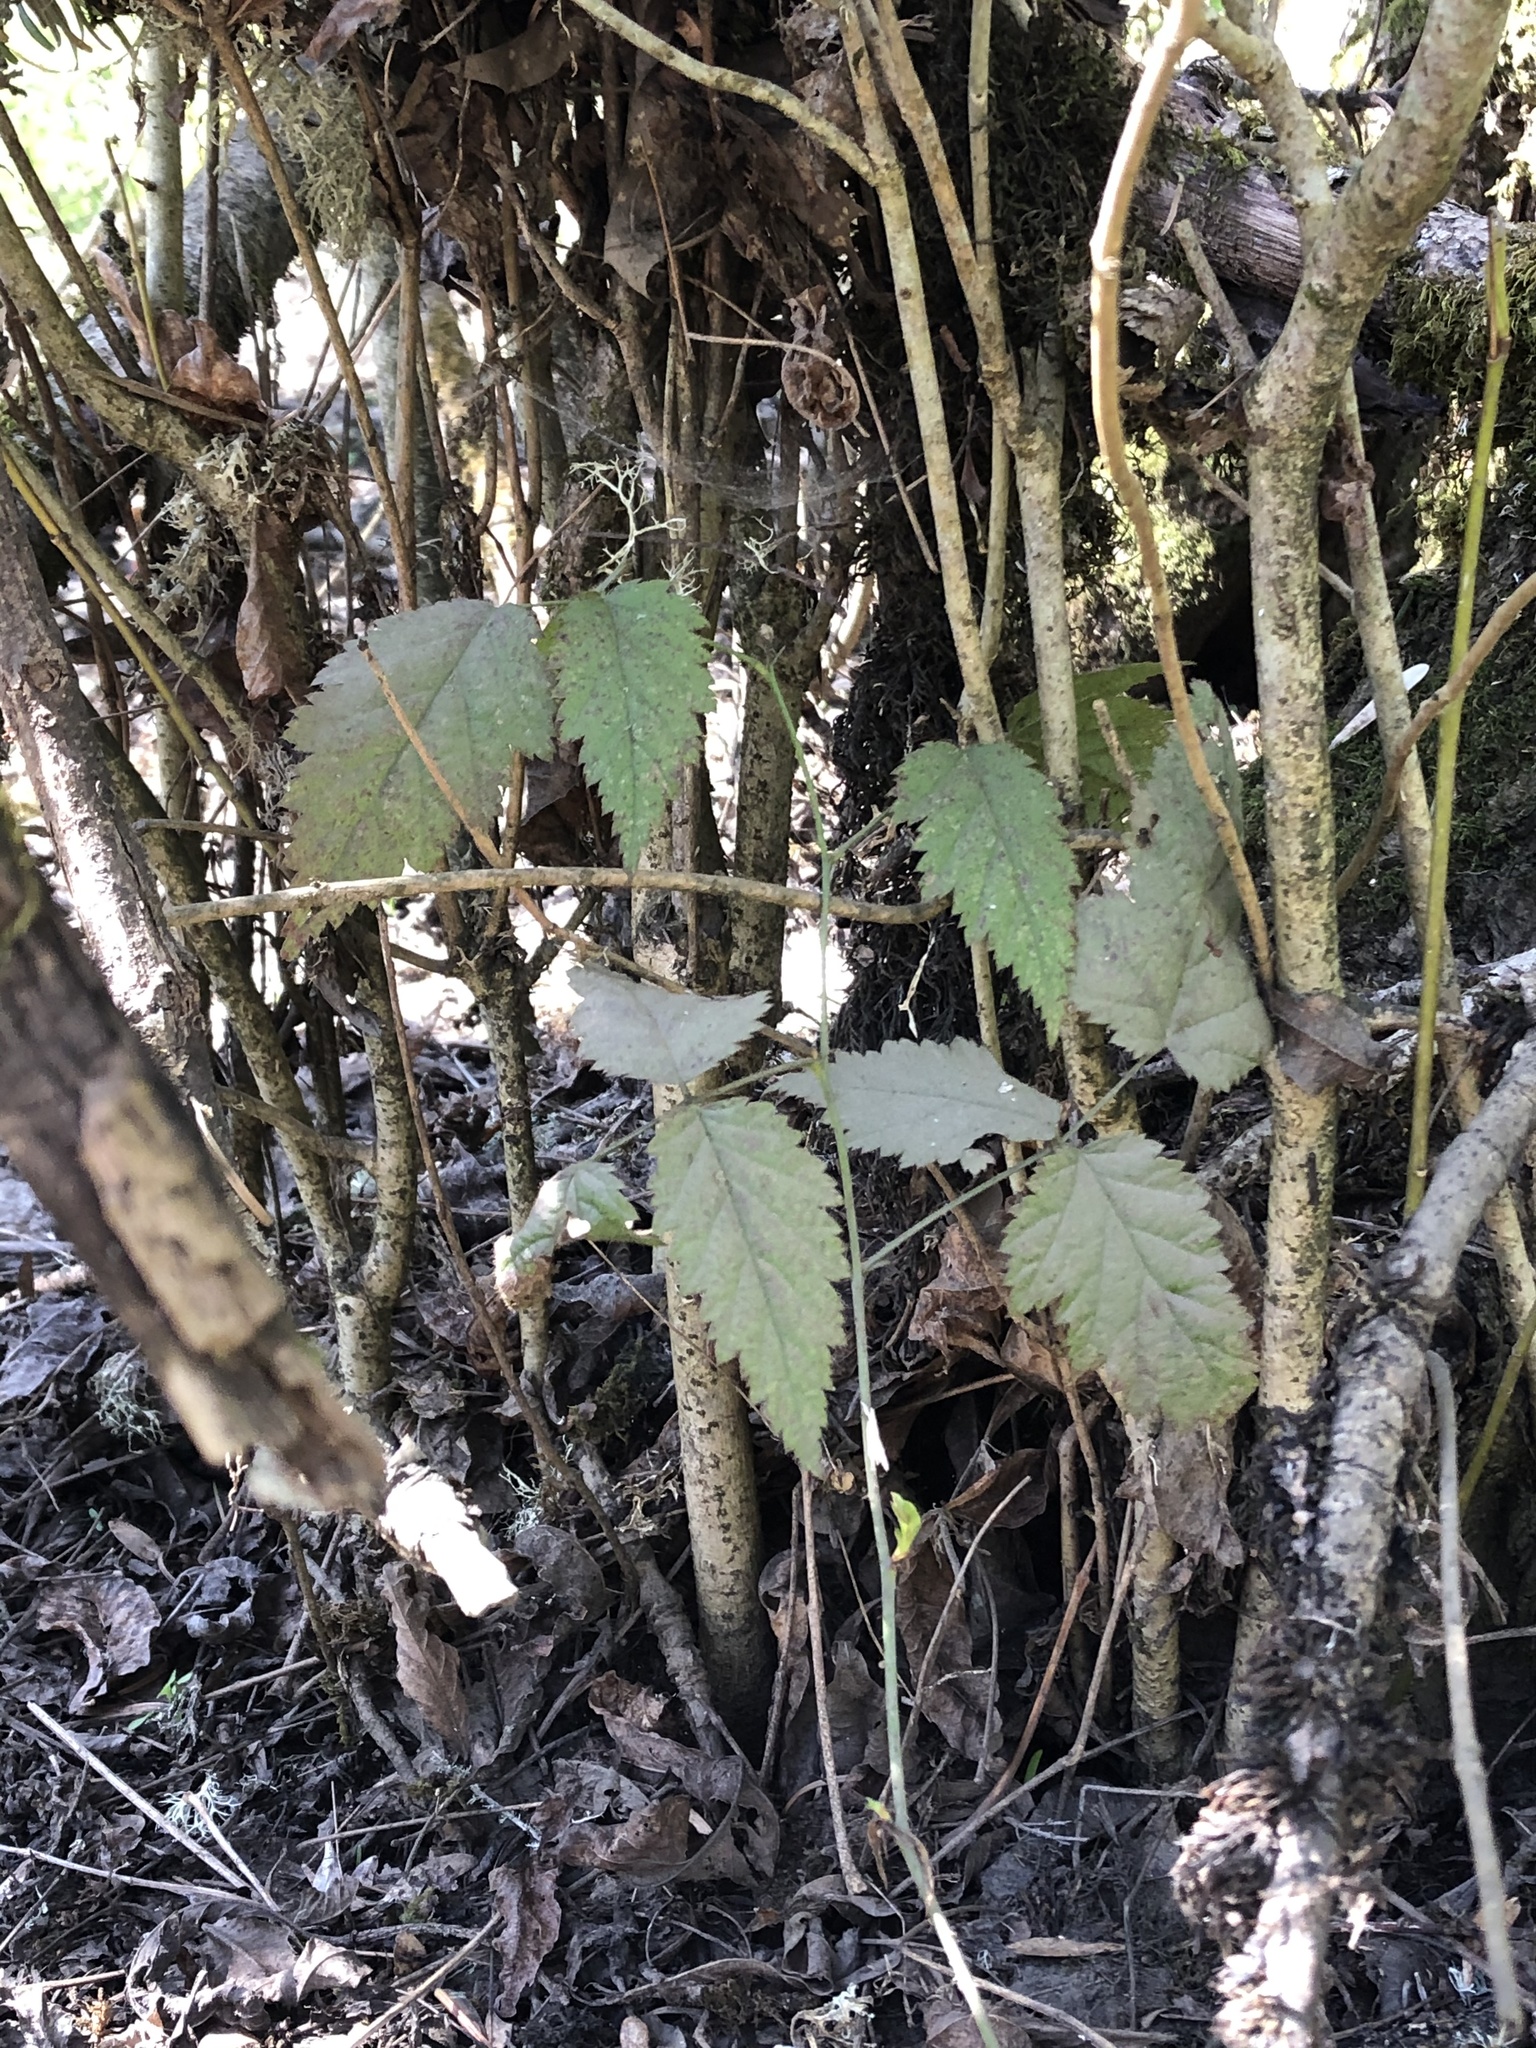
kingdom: Plantae
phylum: Tracheophyta
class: Magnoliopsida
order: Rosales
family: Rosaceae
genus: Rubus
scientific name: Rubus spectabilis
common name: Salmonberry
